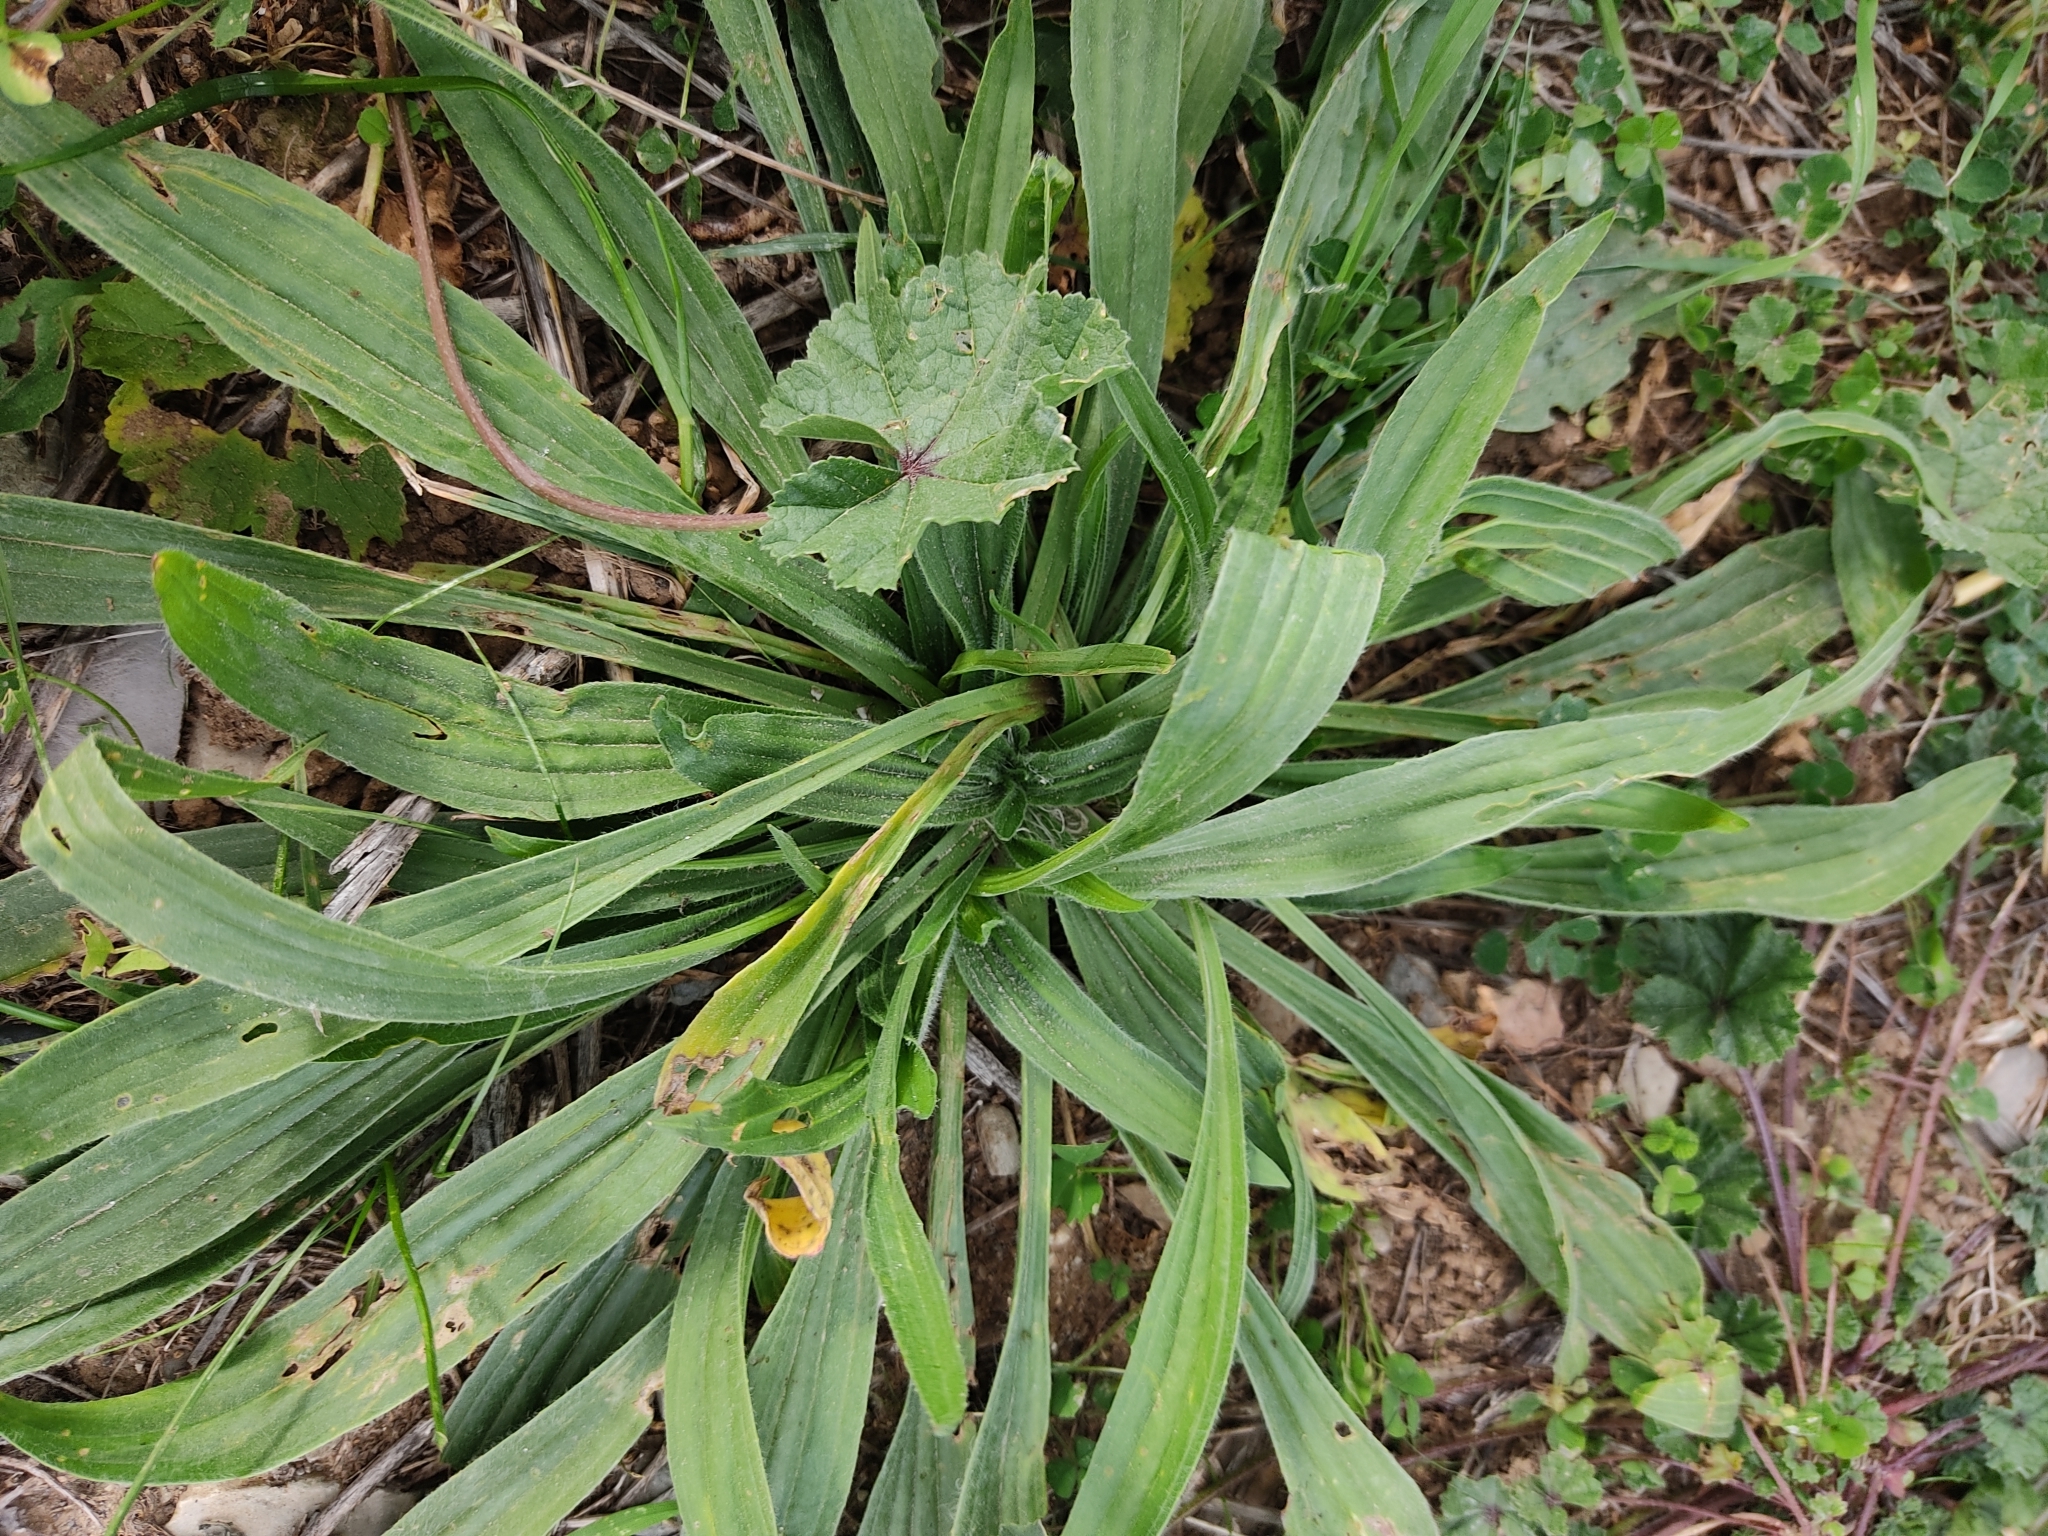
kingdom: Plantae
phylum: Tracheophyta
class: Magnoliopsida
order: Lamiales
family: Plantaginaceae
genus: Plantago
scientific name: Plantago lanceolata
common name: Ribwort plantain
